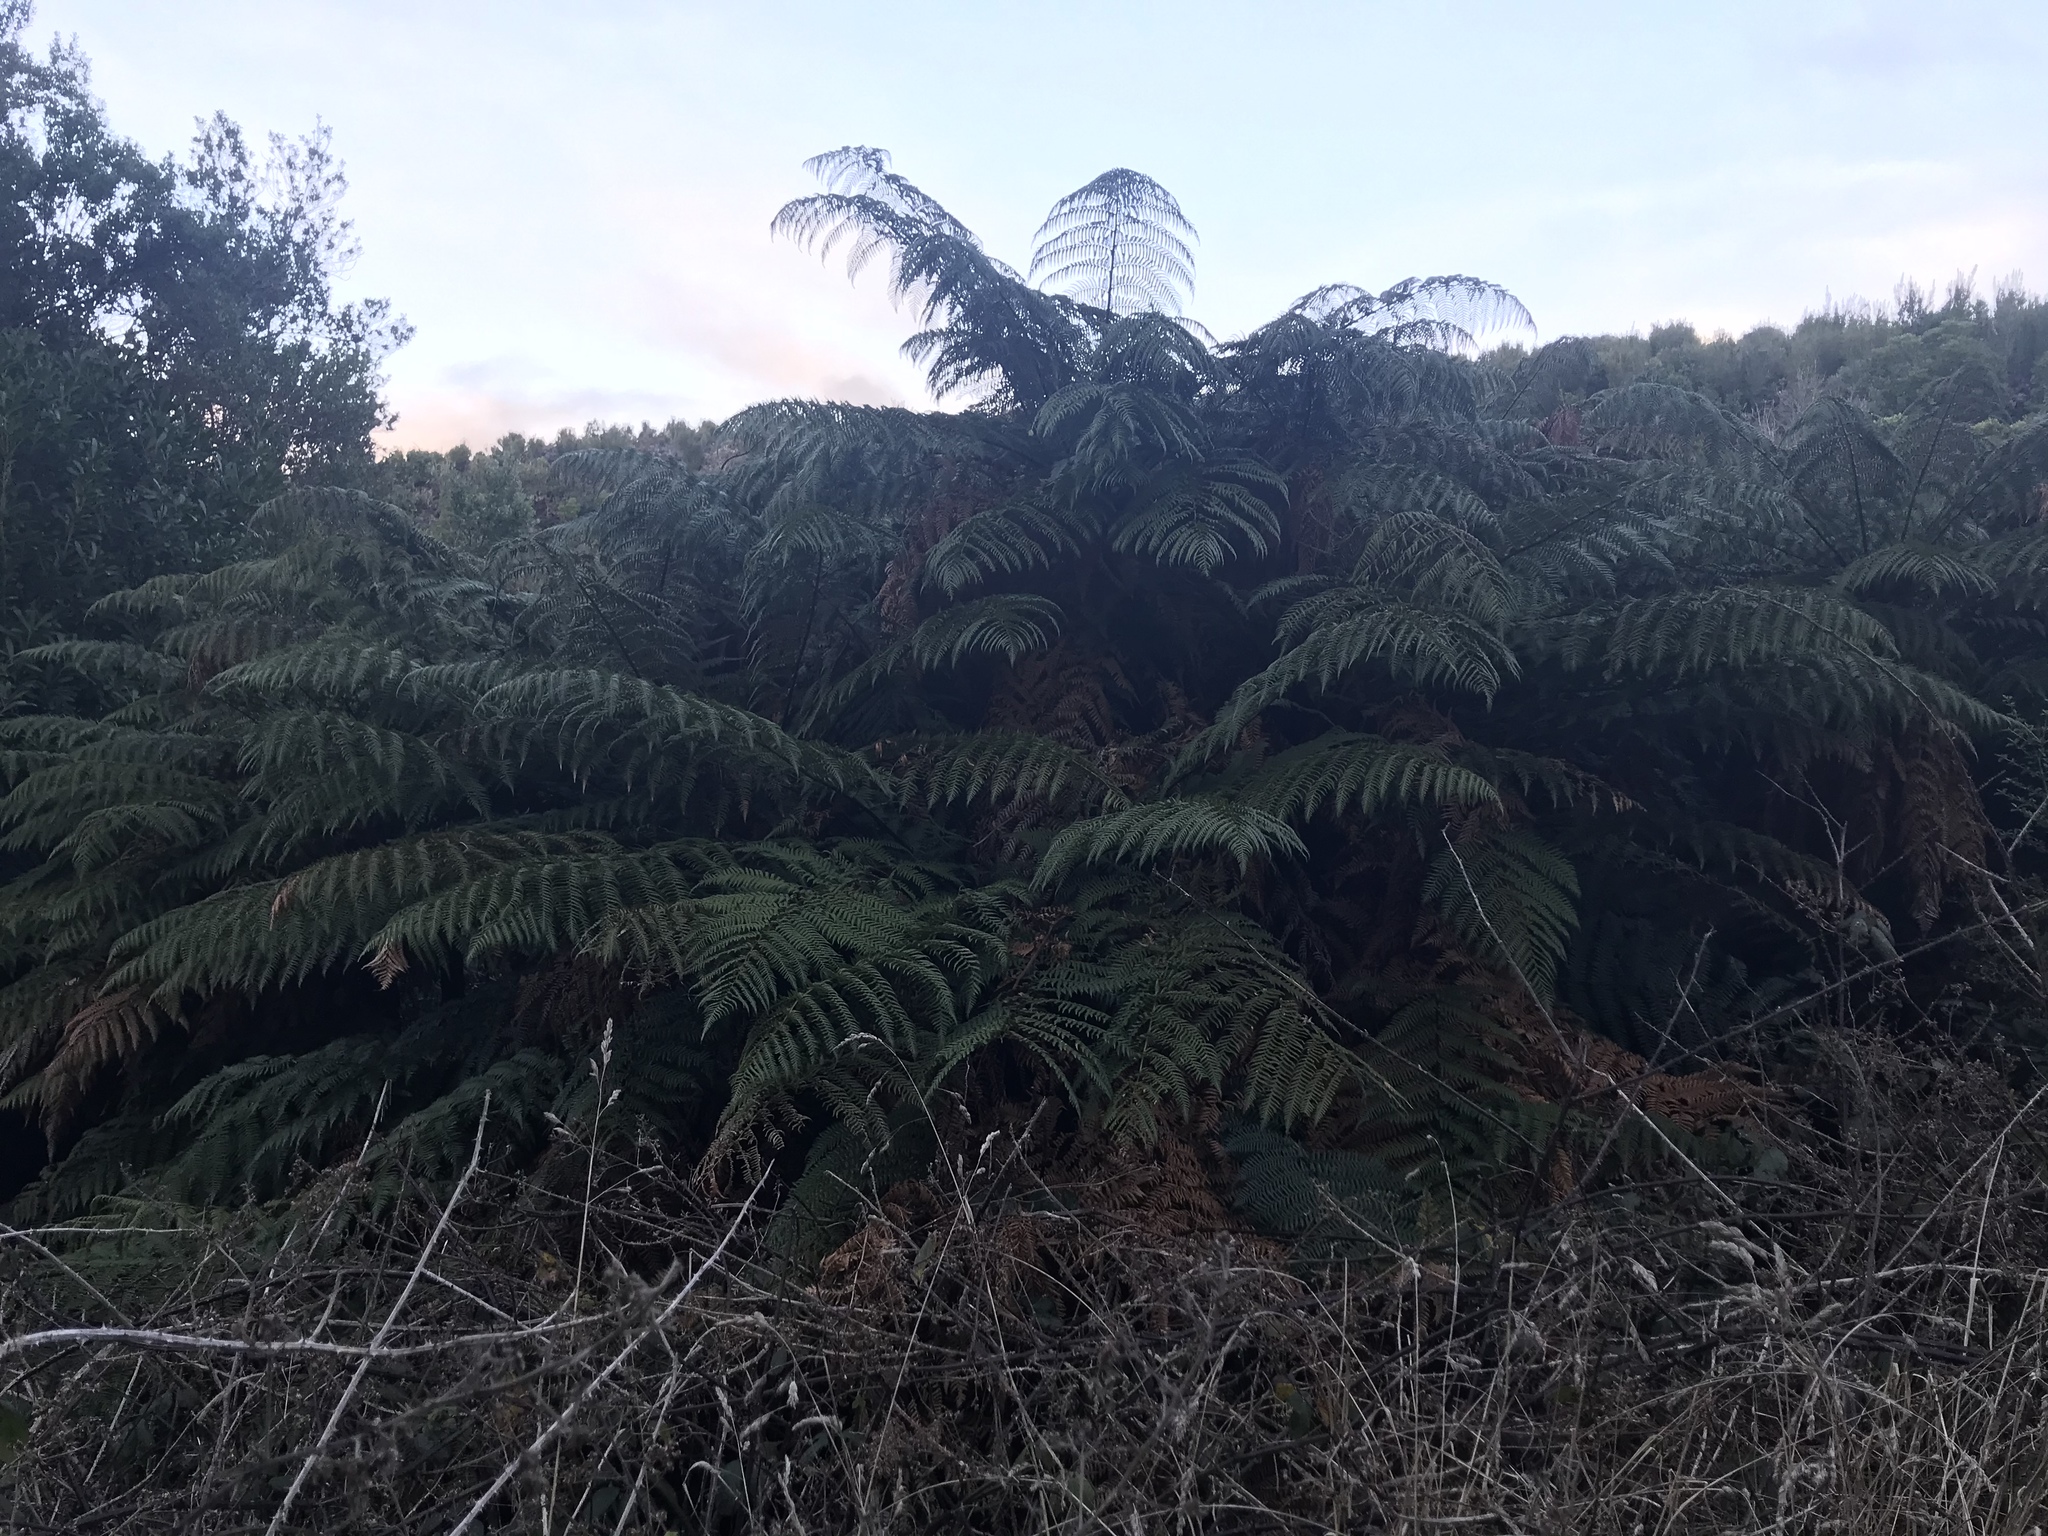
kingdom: Plantae
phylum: Tracheophyta
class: Polypodiopsida
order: Cyatheales
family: Dicksoniaceae
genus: Dicksonia
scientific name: Dicksonia squarrosa
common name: Hard treefern
